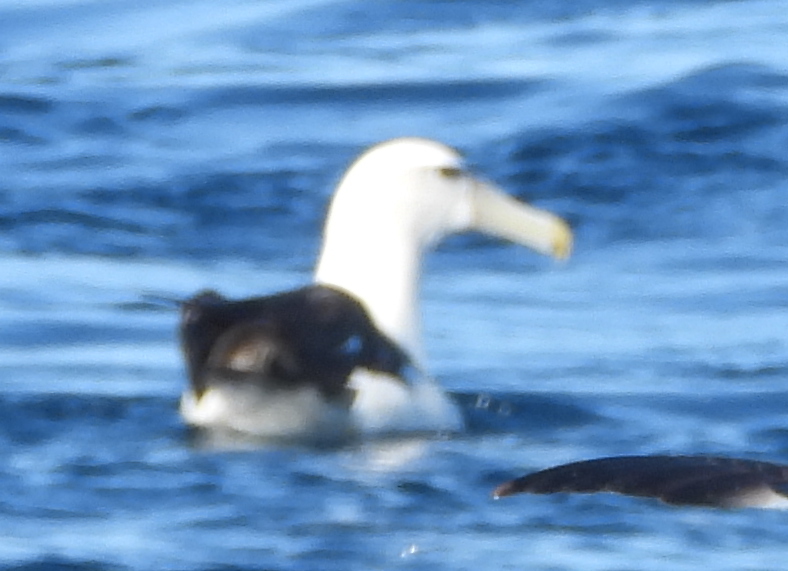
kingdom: Animalia
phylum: Chordata
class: Aves
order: Procellariiformes
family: Diomedeidae
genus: Thalassarche
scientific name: Thalassarche cauta
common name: Shy albatross
